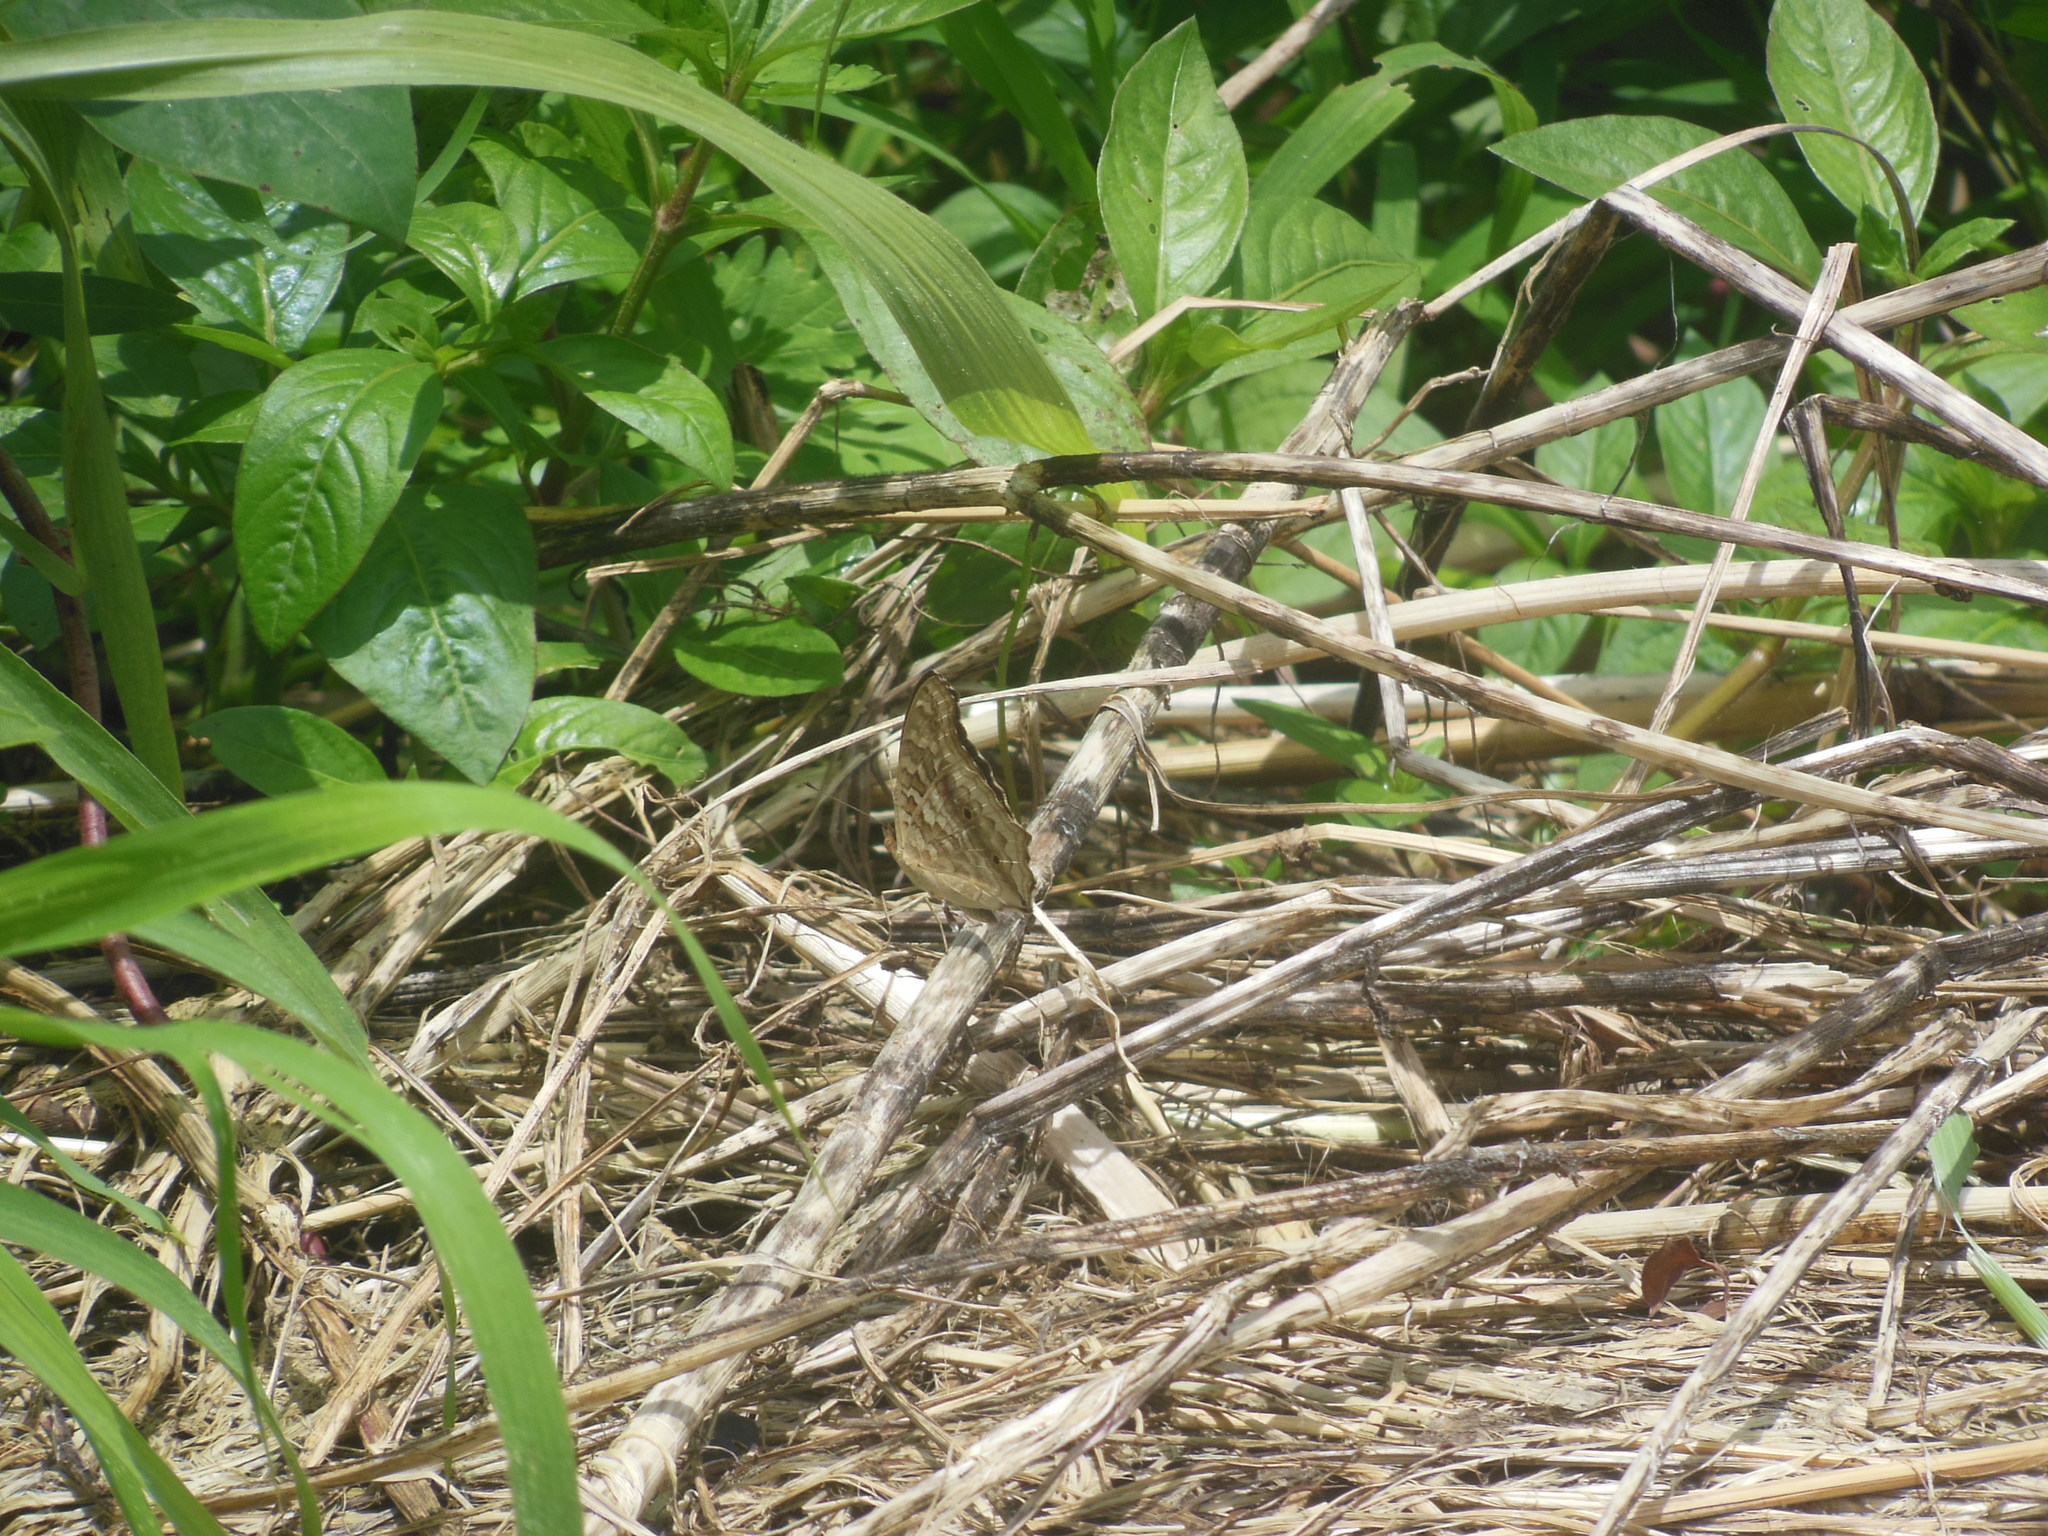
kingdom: Animalia
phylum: Arthropoda
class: Insecta
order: Lepidoptera
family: Nymphalidae
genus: Junonia
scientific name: Junonia lemonias
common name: Lemon pansy
